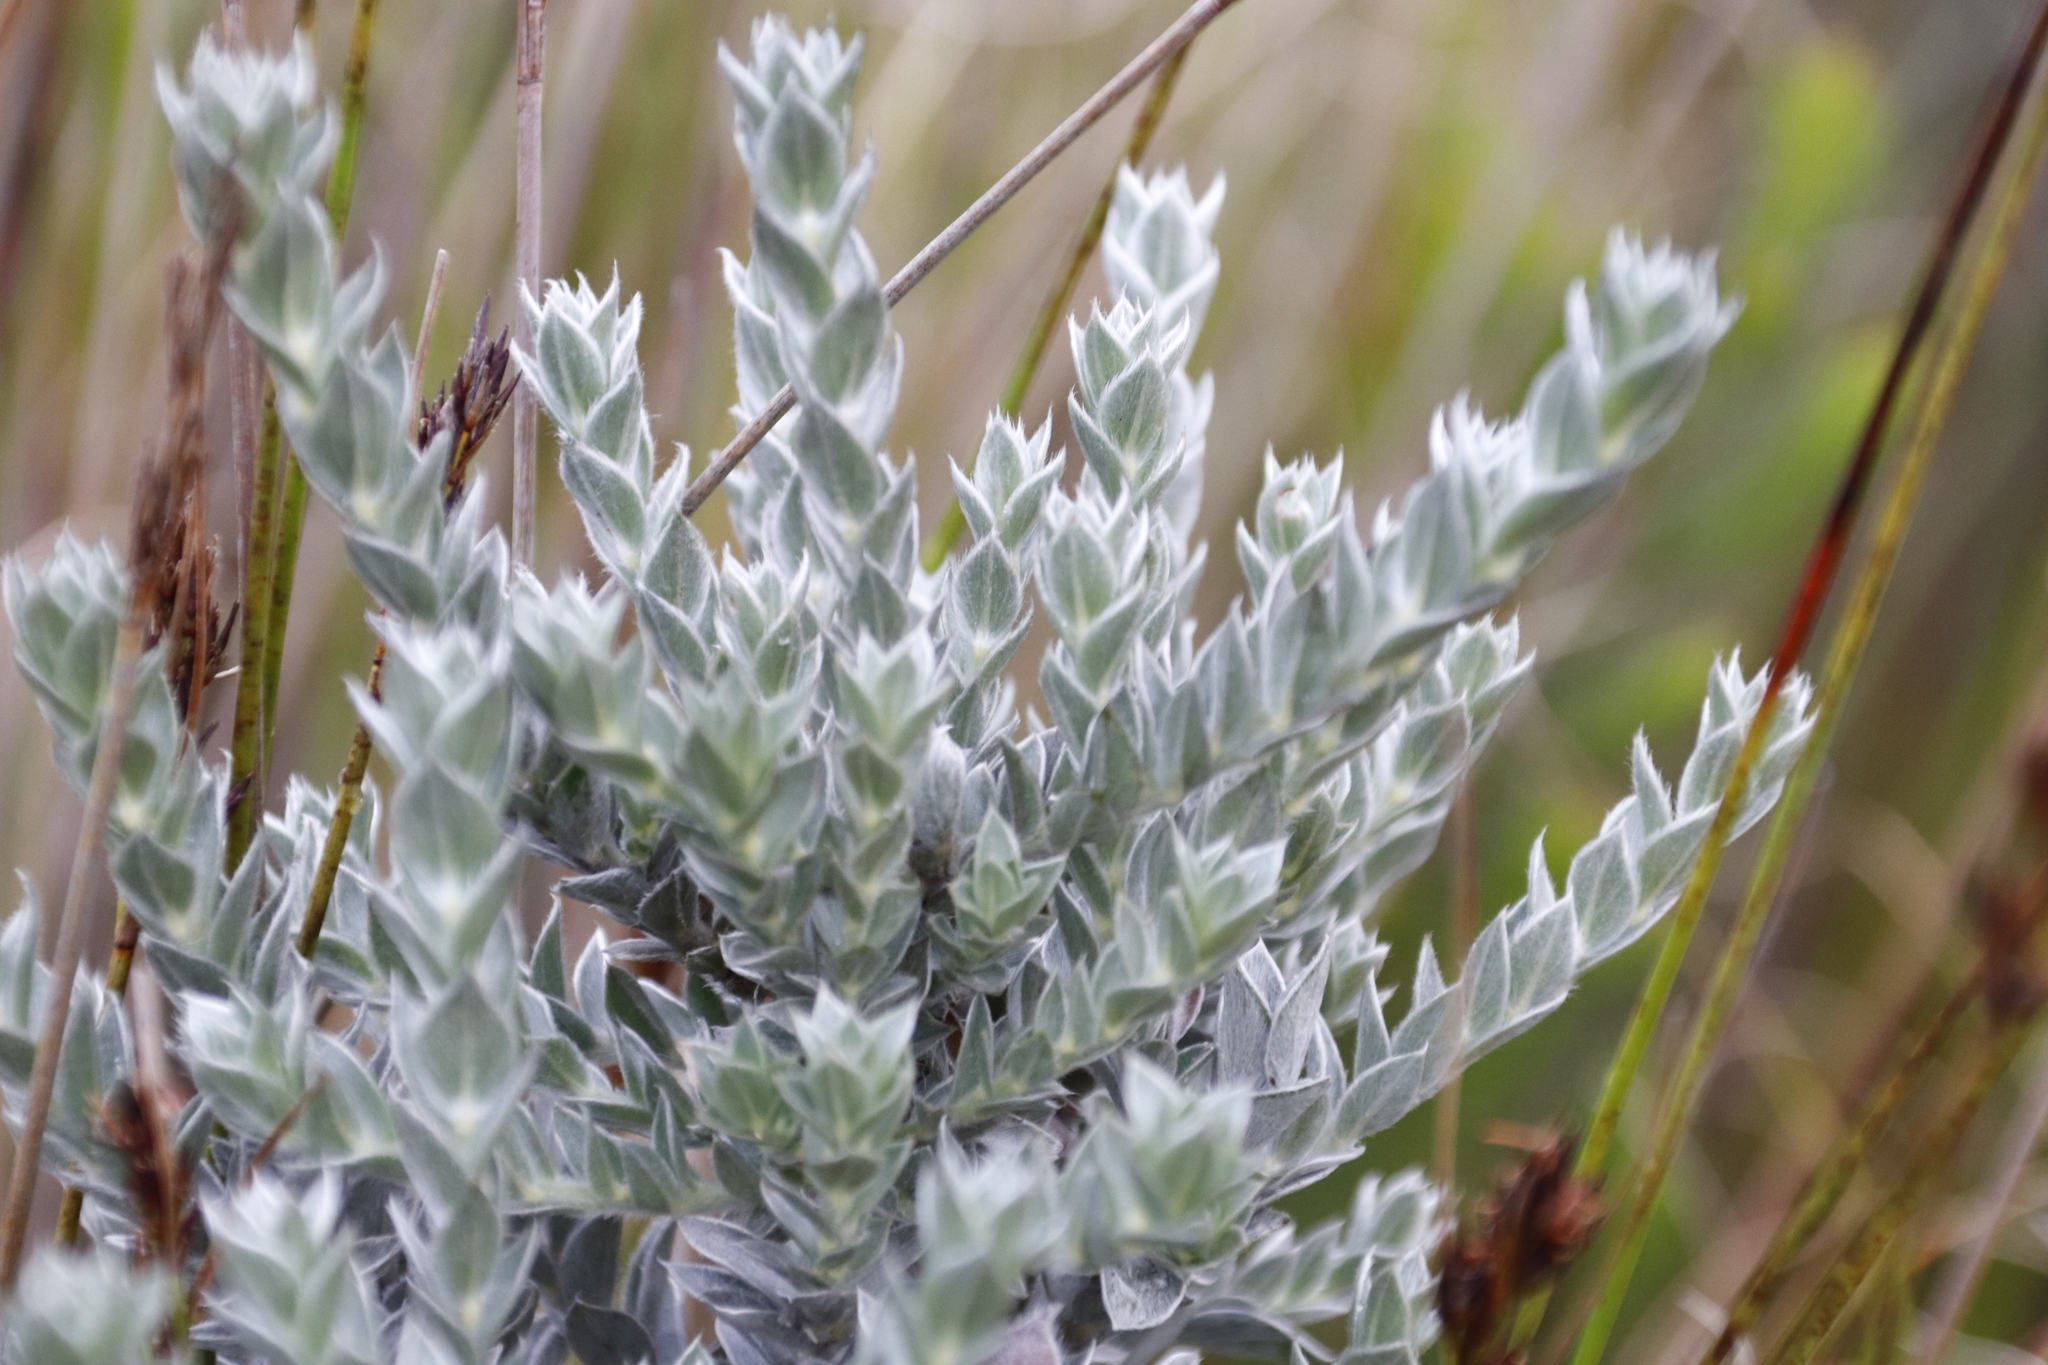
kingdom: Plantae
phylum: Tracheophyta
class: Magnoliopsida
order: Fabales
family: Fabaceae
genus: Amphithalea
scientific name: Amphithalea imbricata
